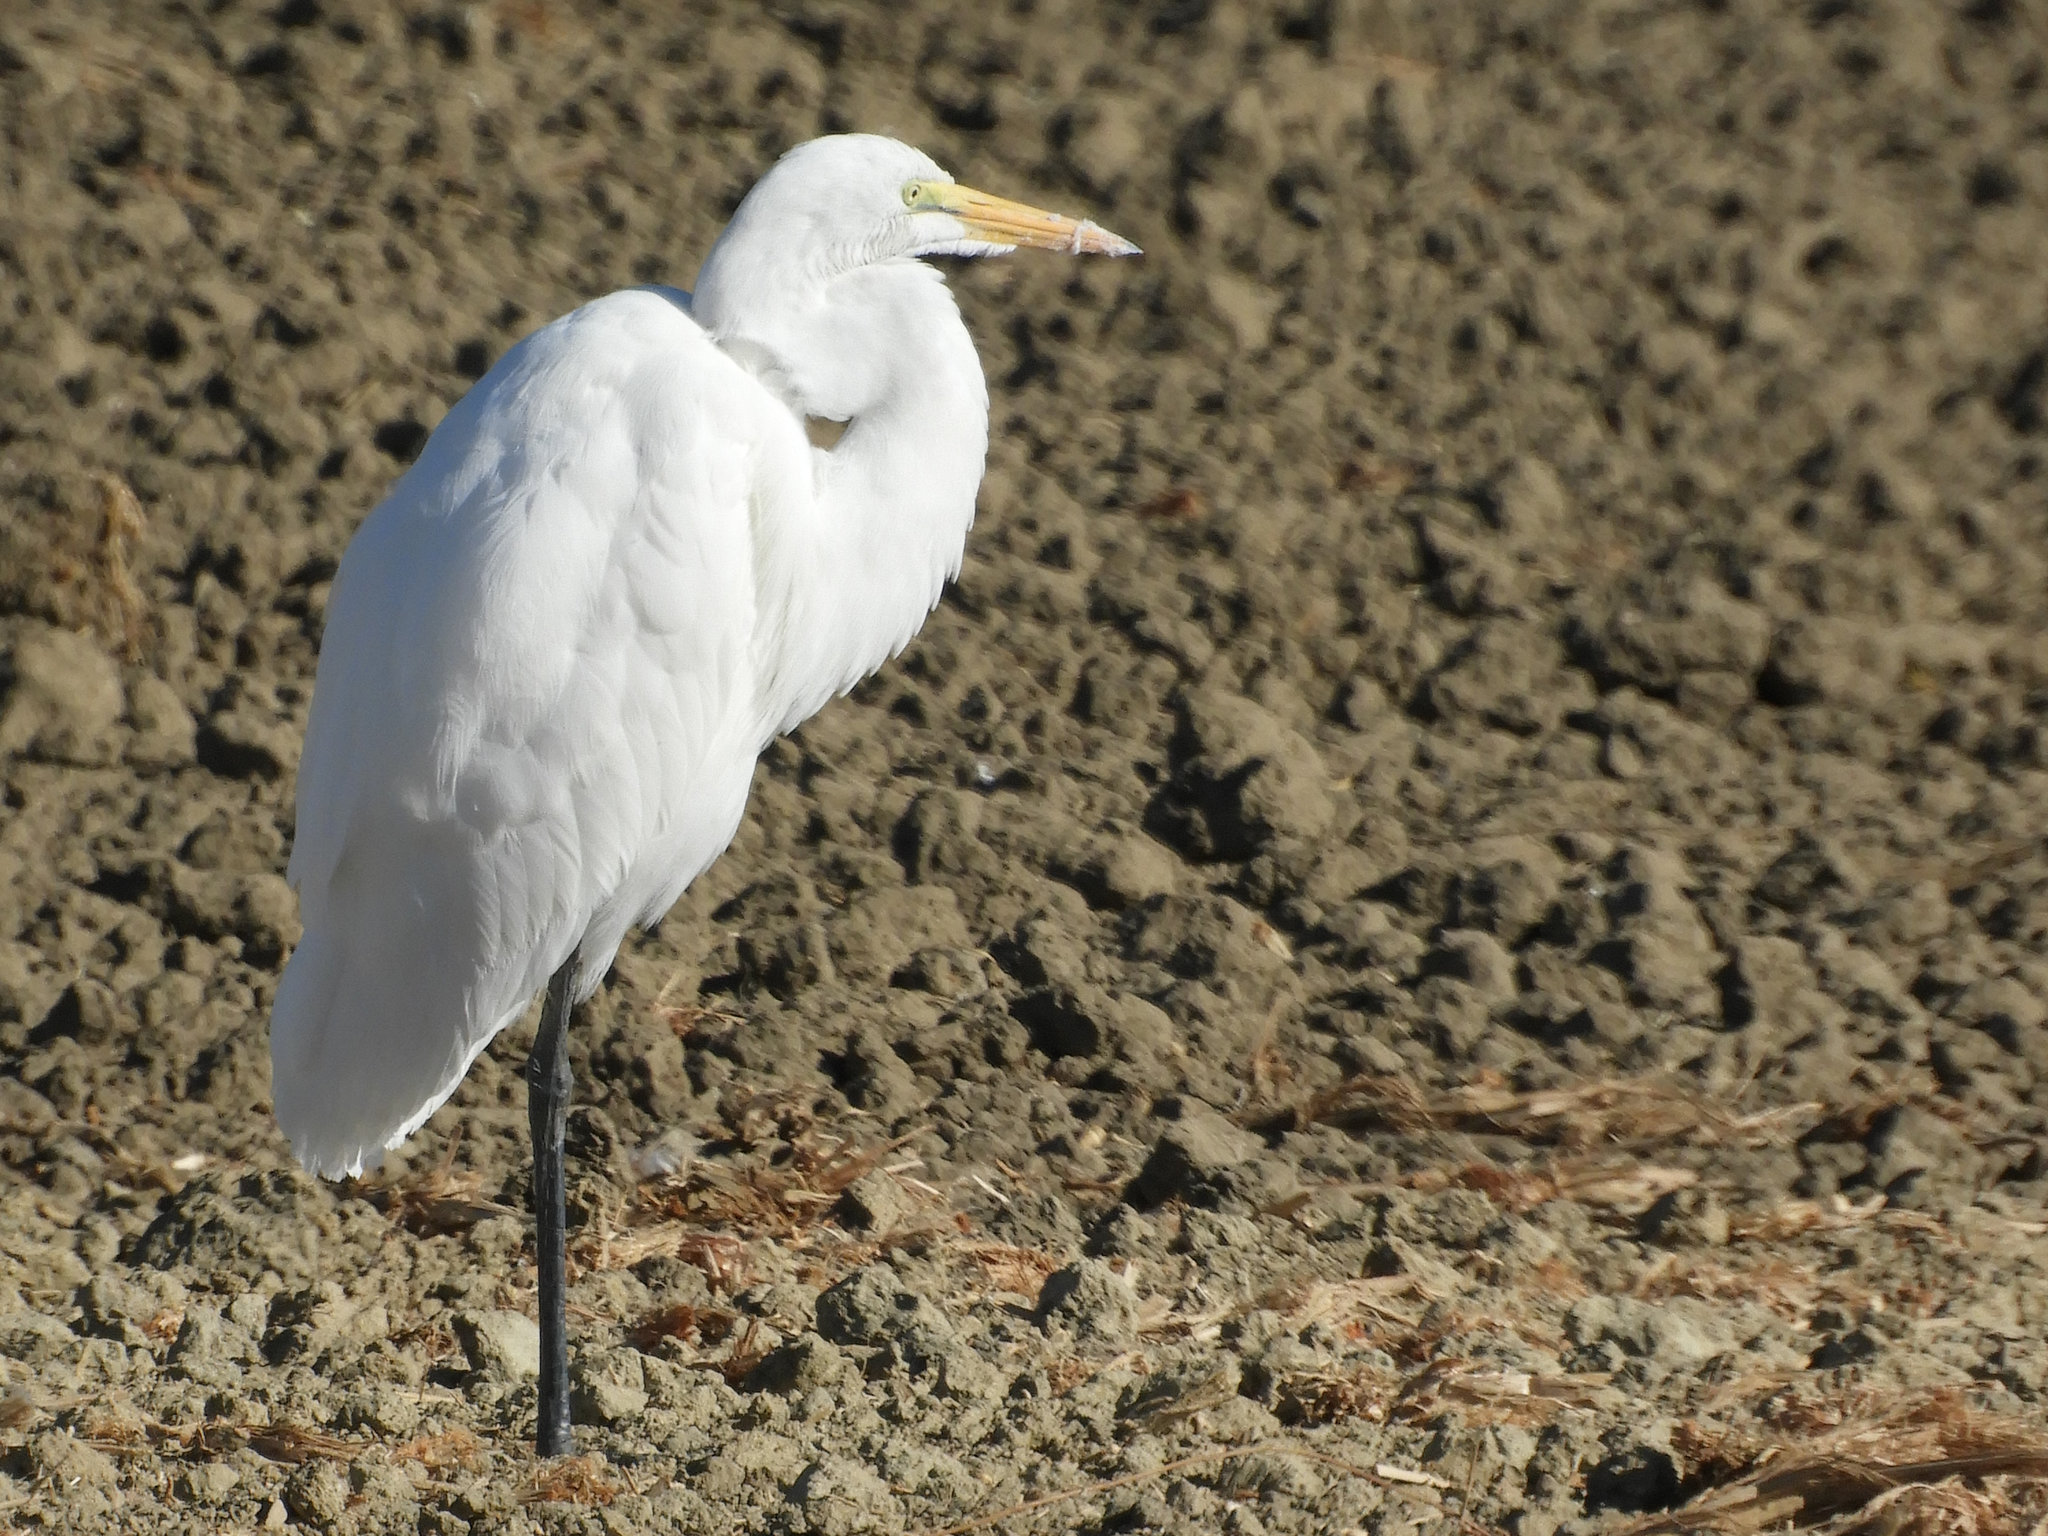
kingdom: Animalia
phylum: Chordata
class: Aves
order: Pelecaniformes
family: Ardeidae
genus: Ardea
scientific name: Ardea alba
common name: Great egret
